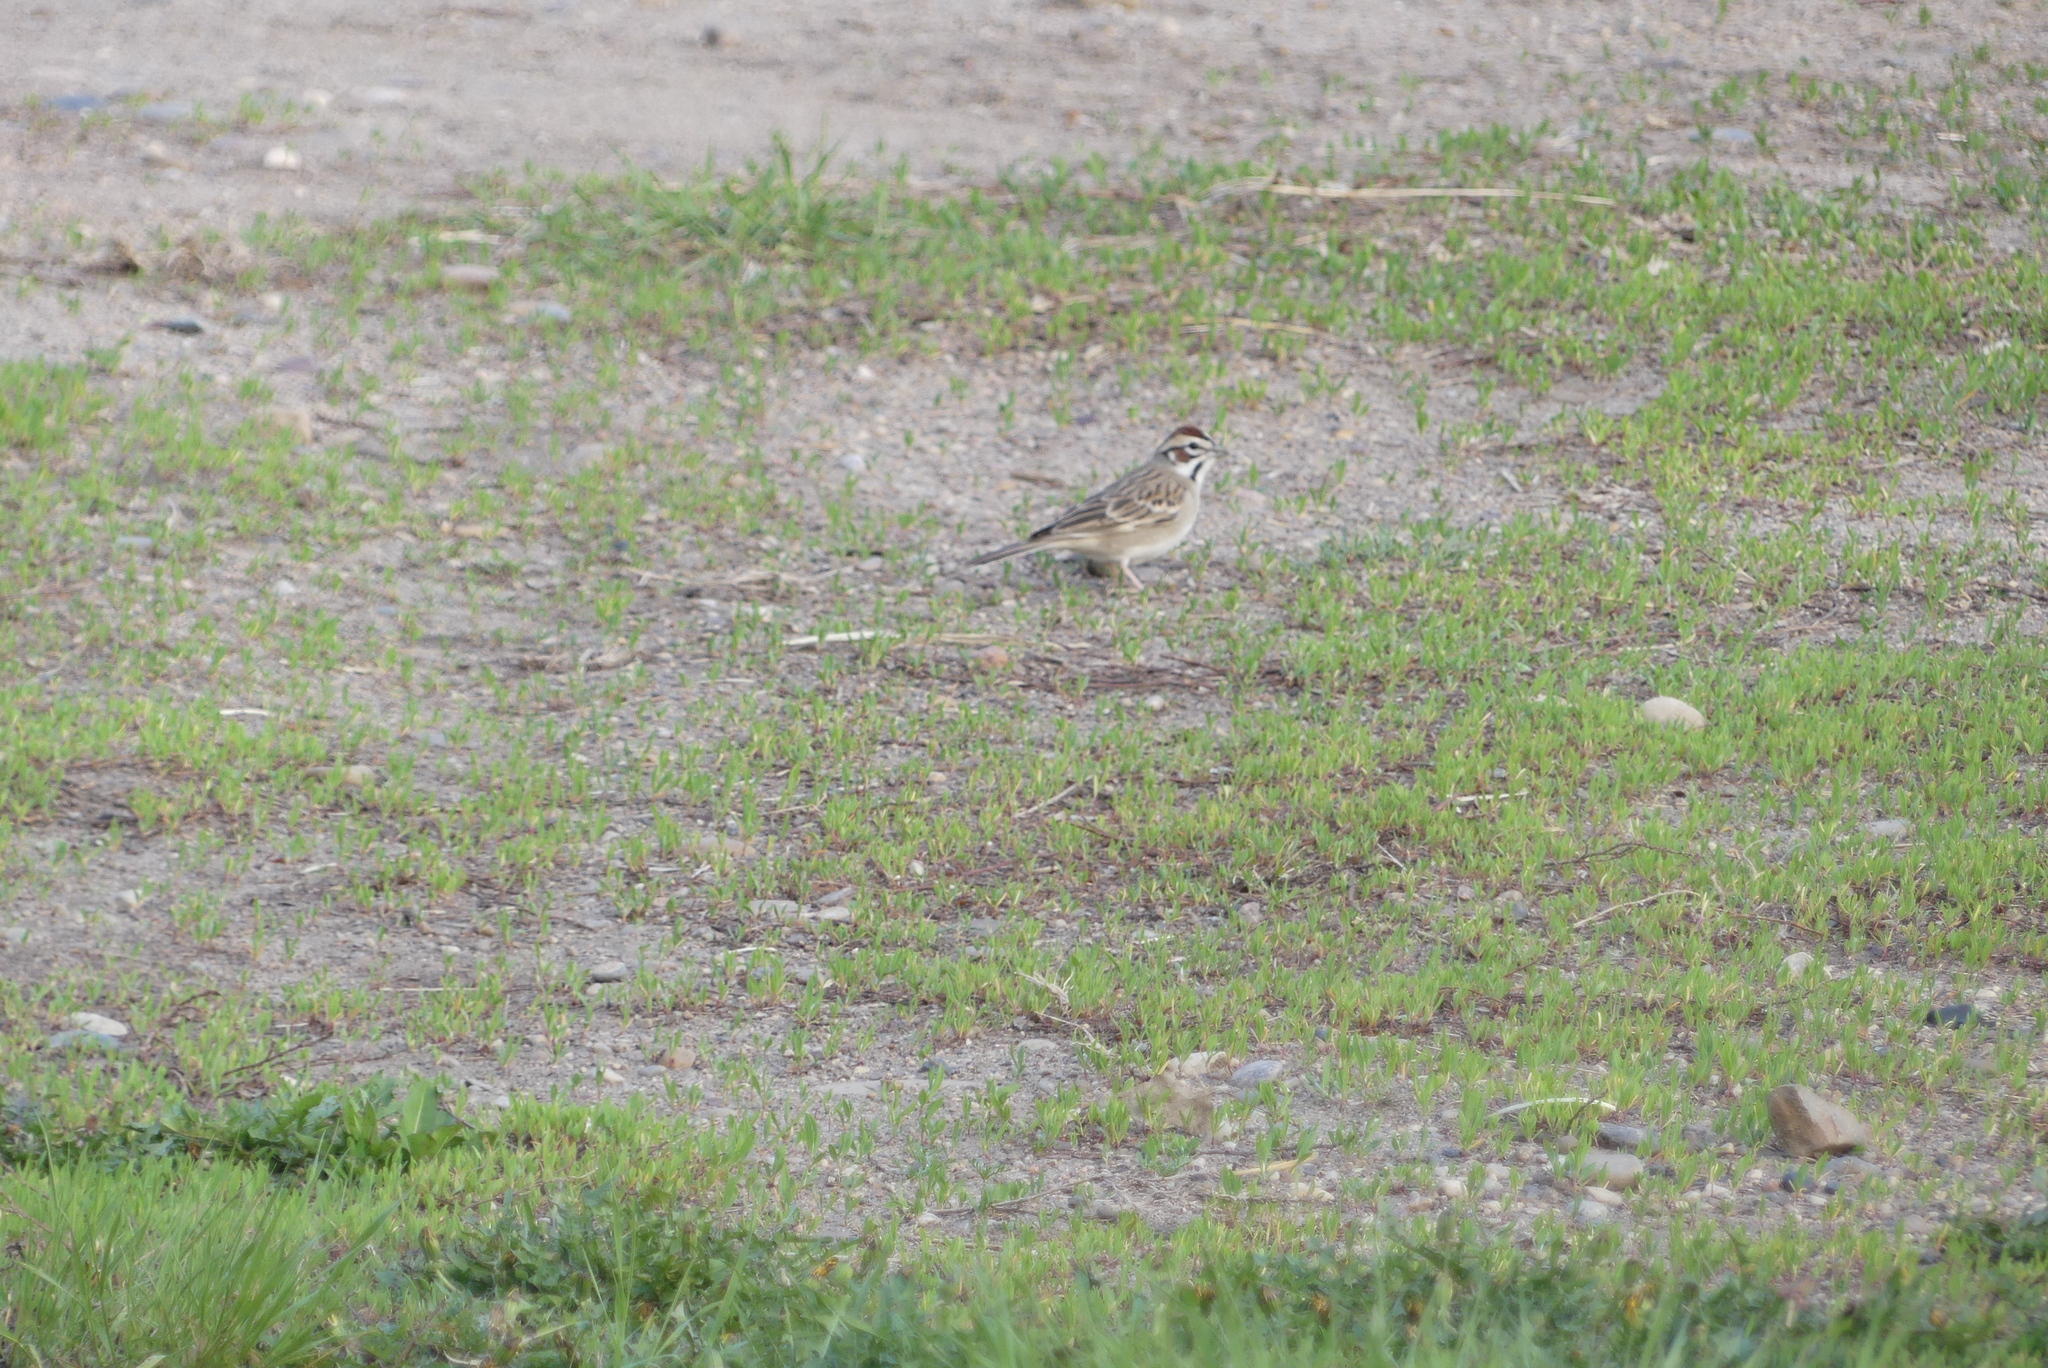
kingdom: Animalia
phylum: Chordata
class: Aves
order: Passeriformes
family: Passerellidae
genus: Chondestes
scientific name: Chondestes grammacus
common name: Lark sparrow
